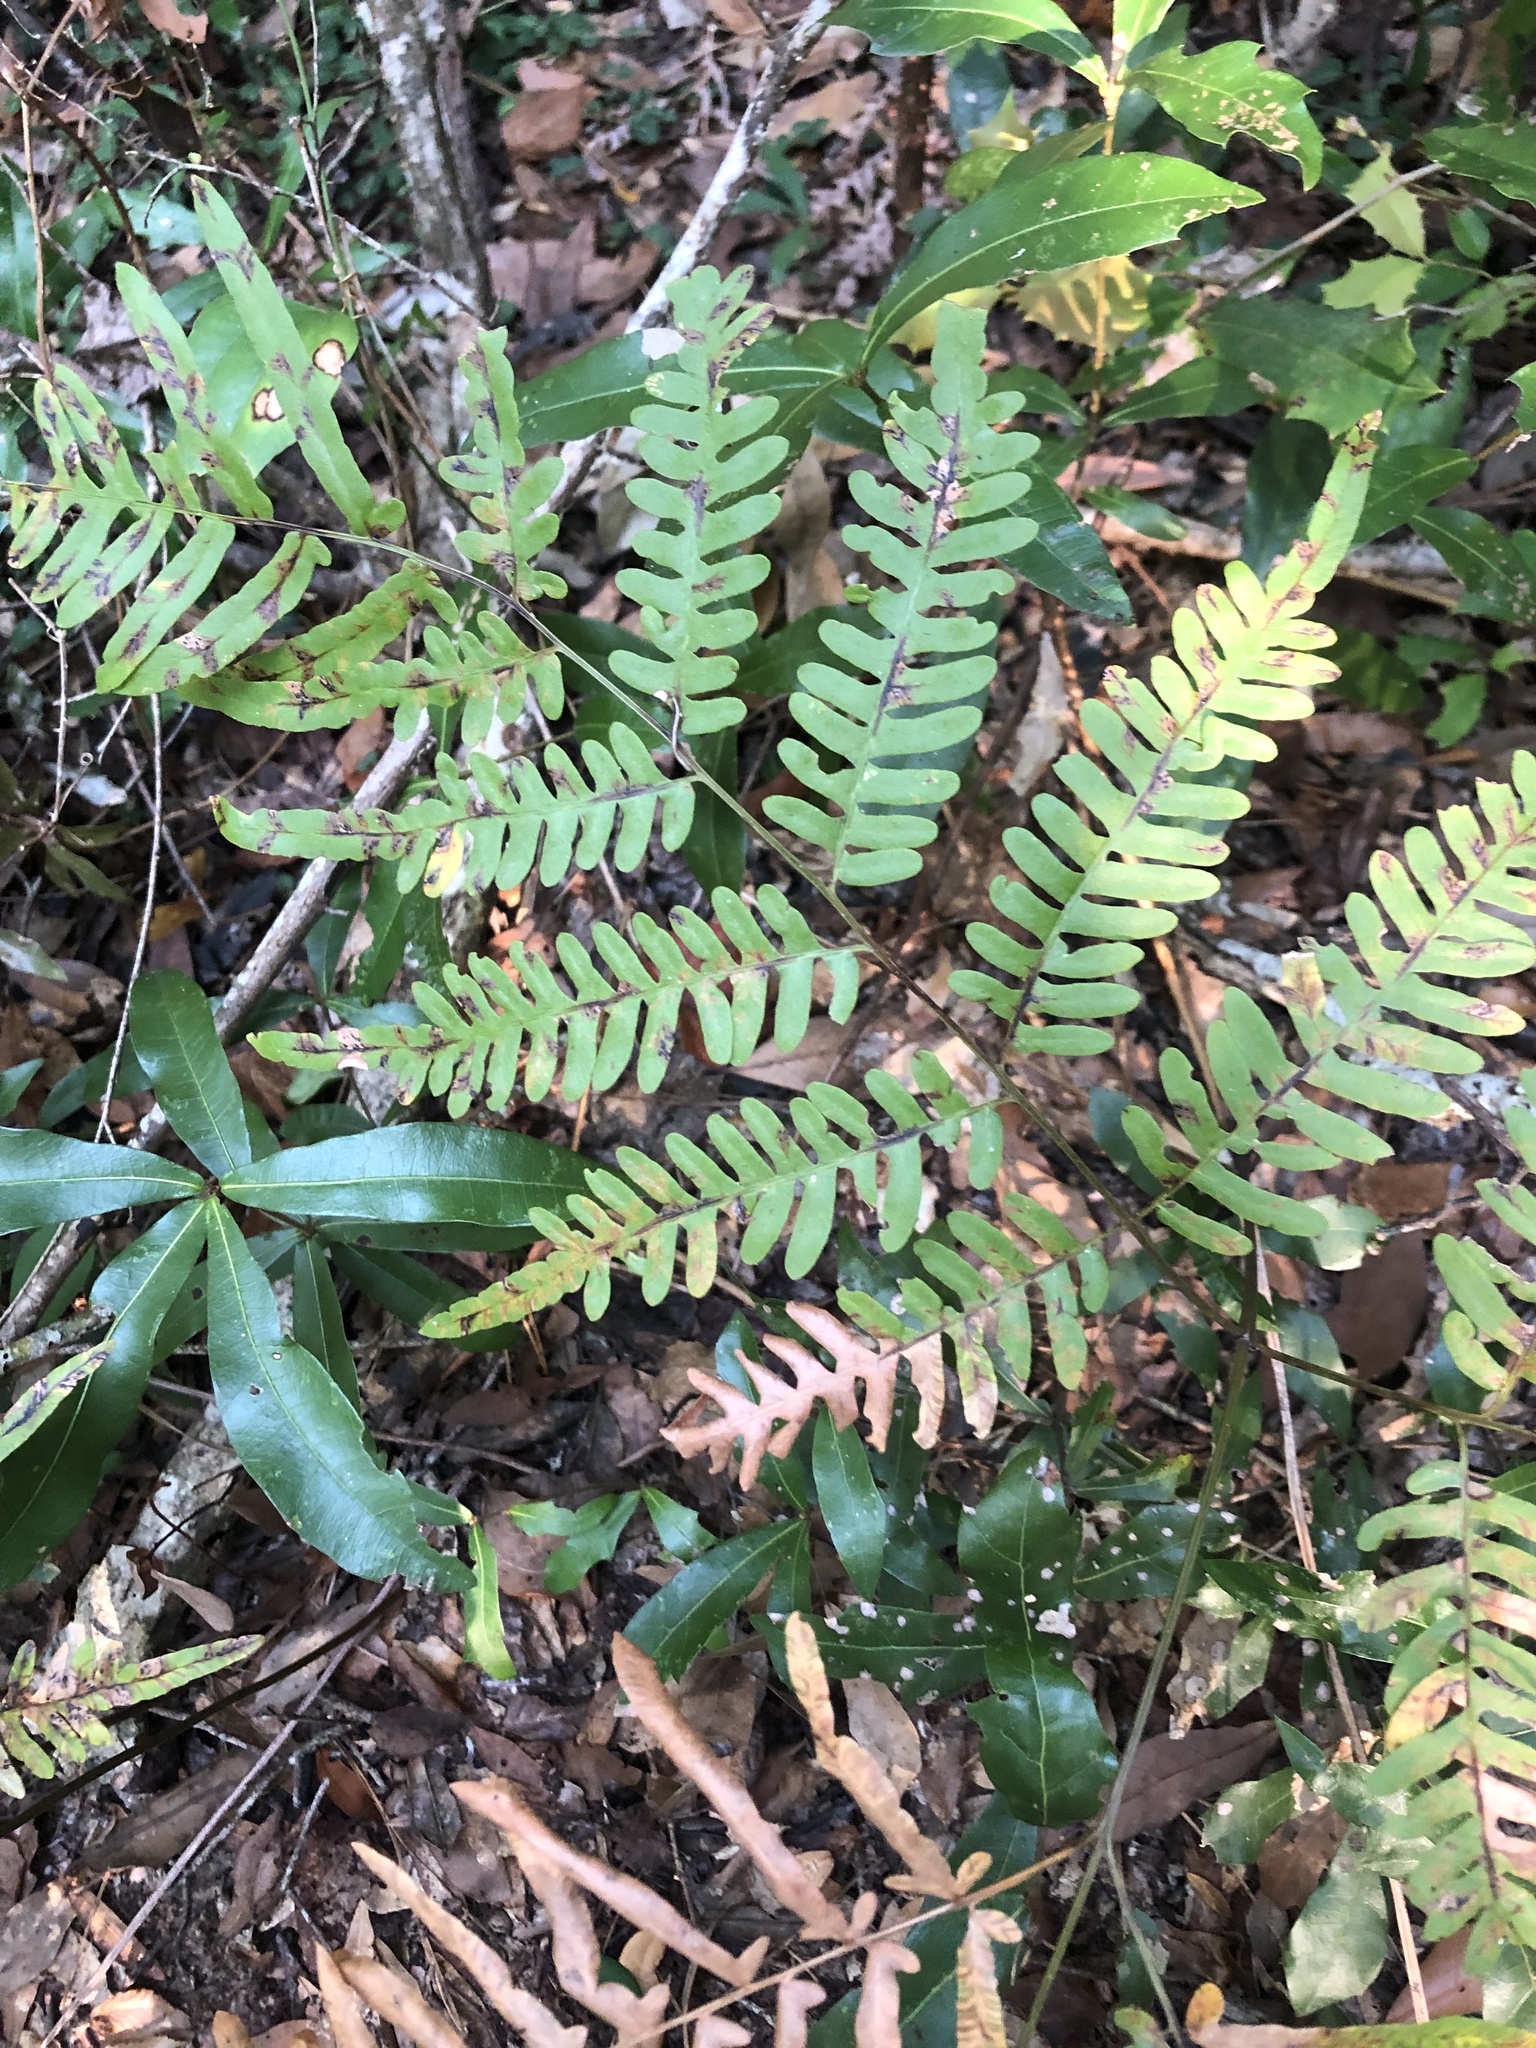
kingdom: Plantae
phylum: Tracheophyta
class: Polypodiopsida
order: Polypodiales
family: Dennstaedtiaceae
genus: Pteridium
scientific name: Pteridium
